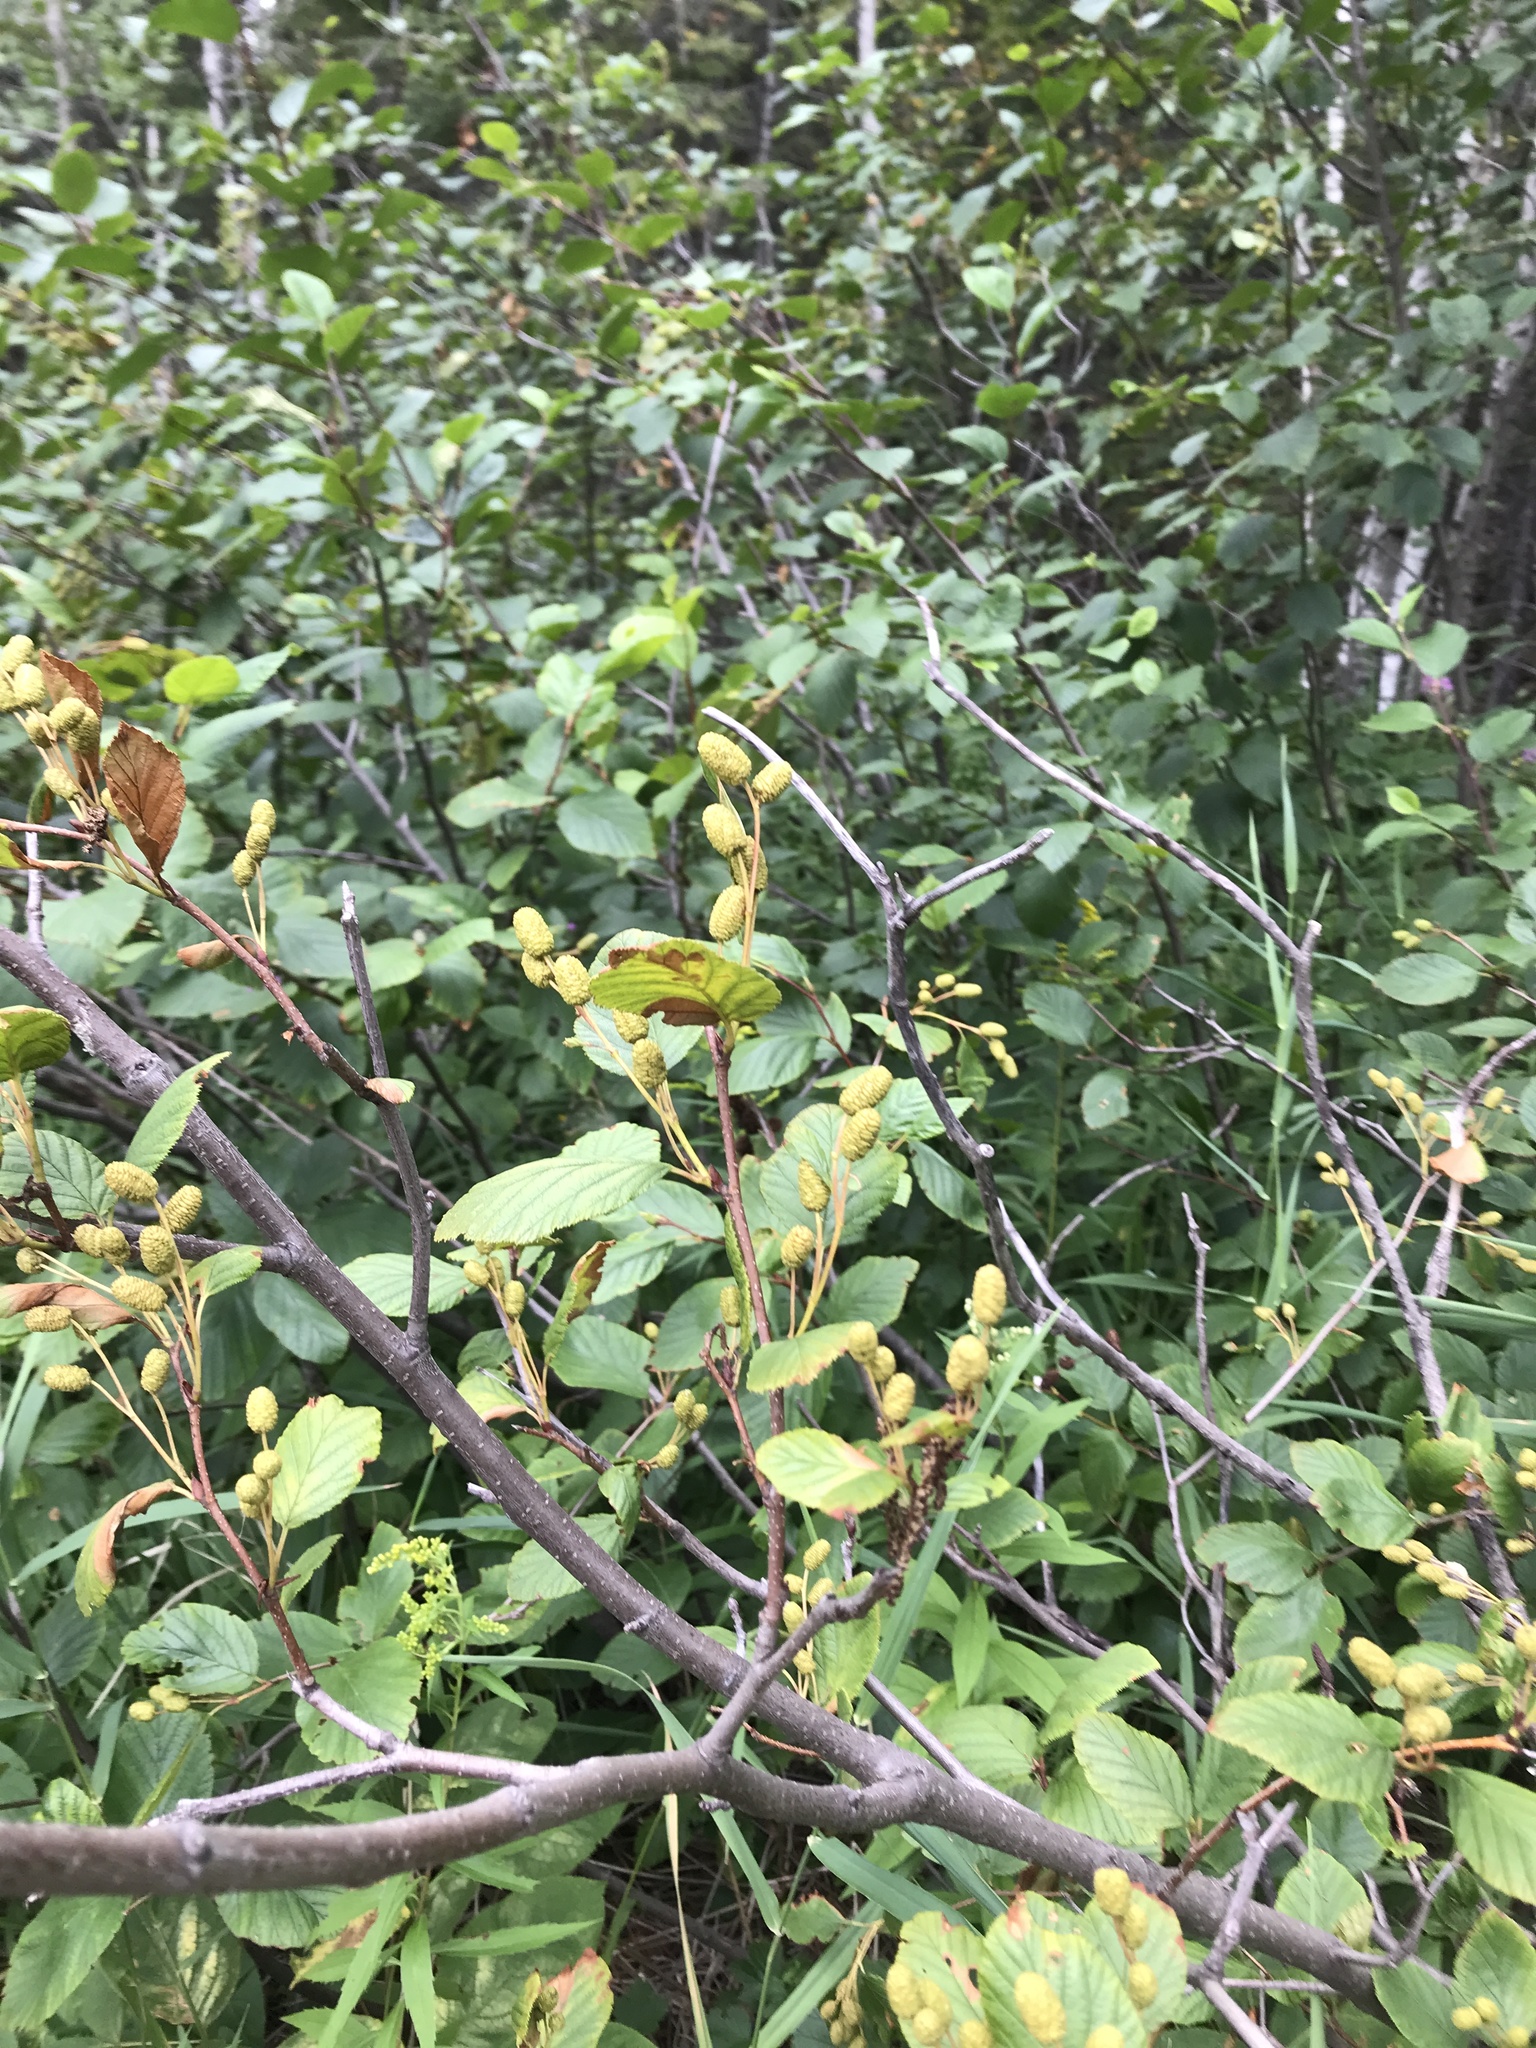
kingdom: Plantae
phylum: Tracheophyta
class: Magnoliopsida
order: Fagales
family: Betulaceae
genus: Alnus
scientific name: Alnus alnobetula
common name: Green alder
